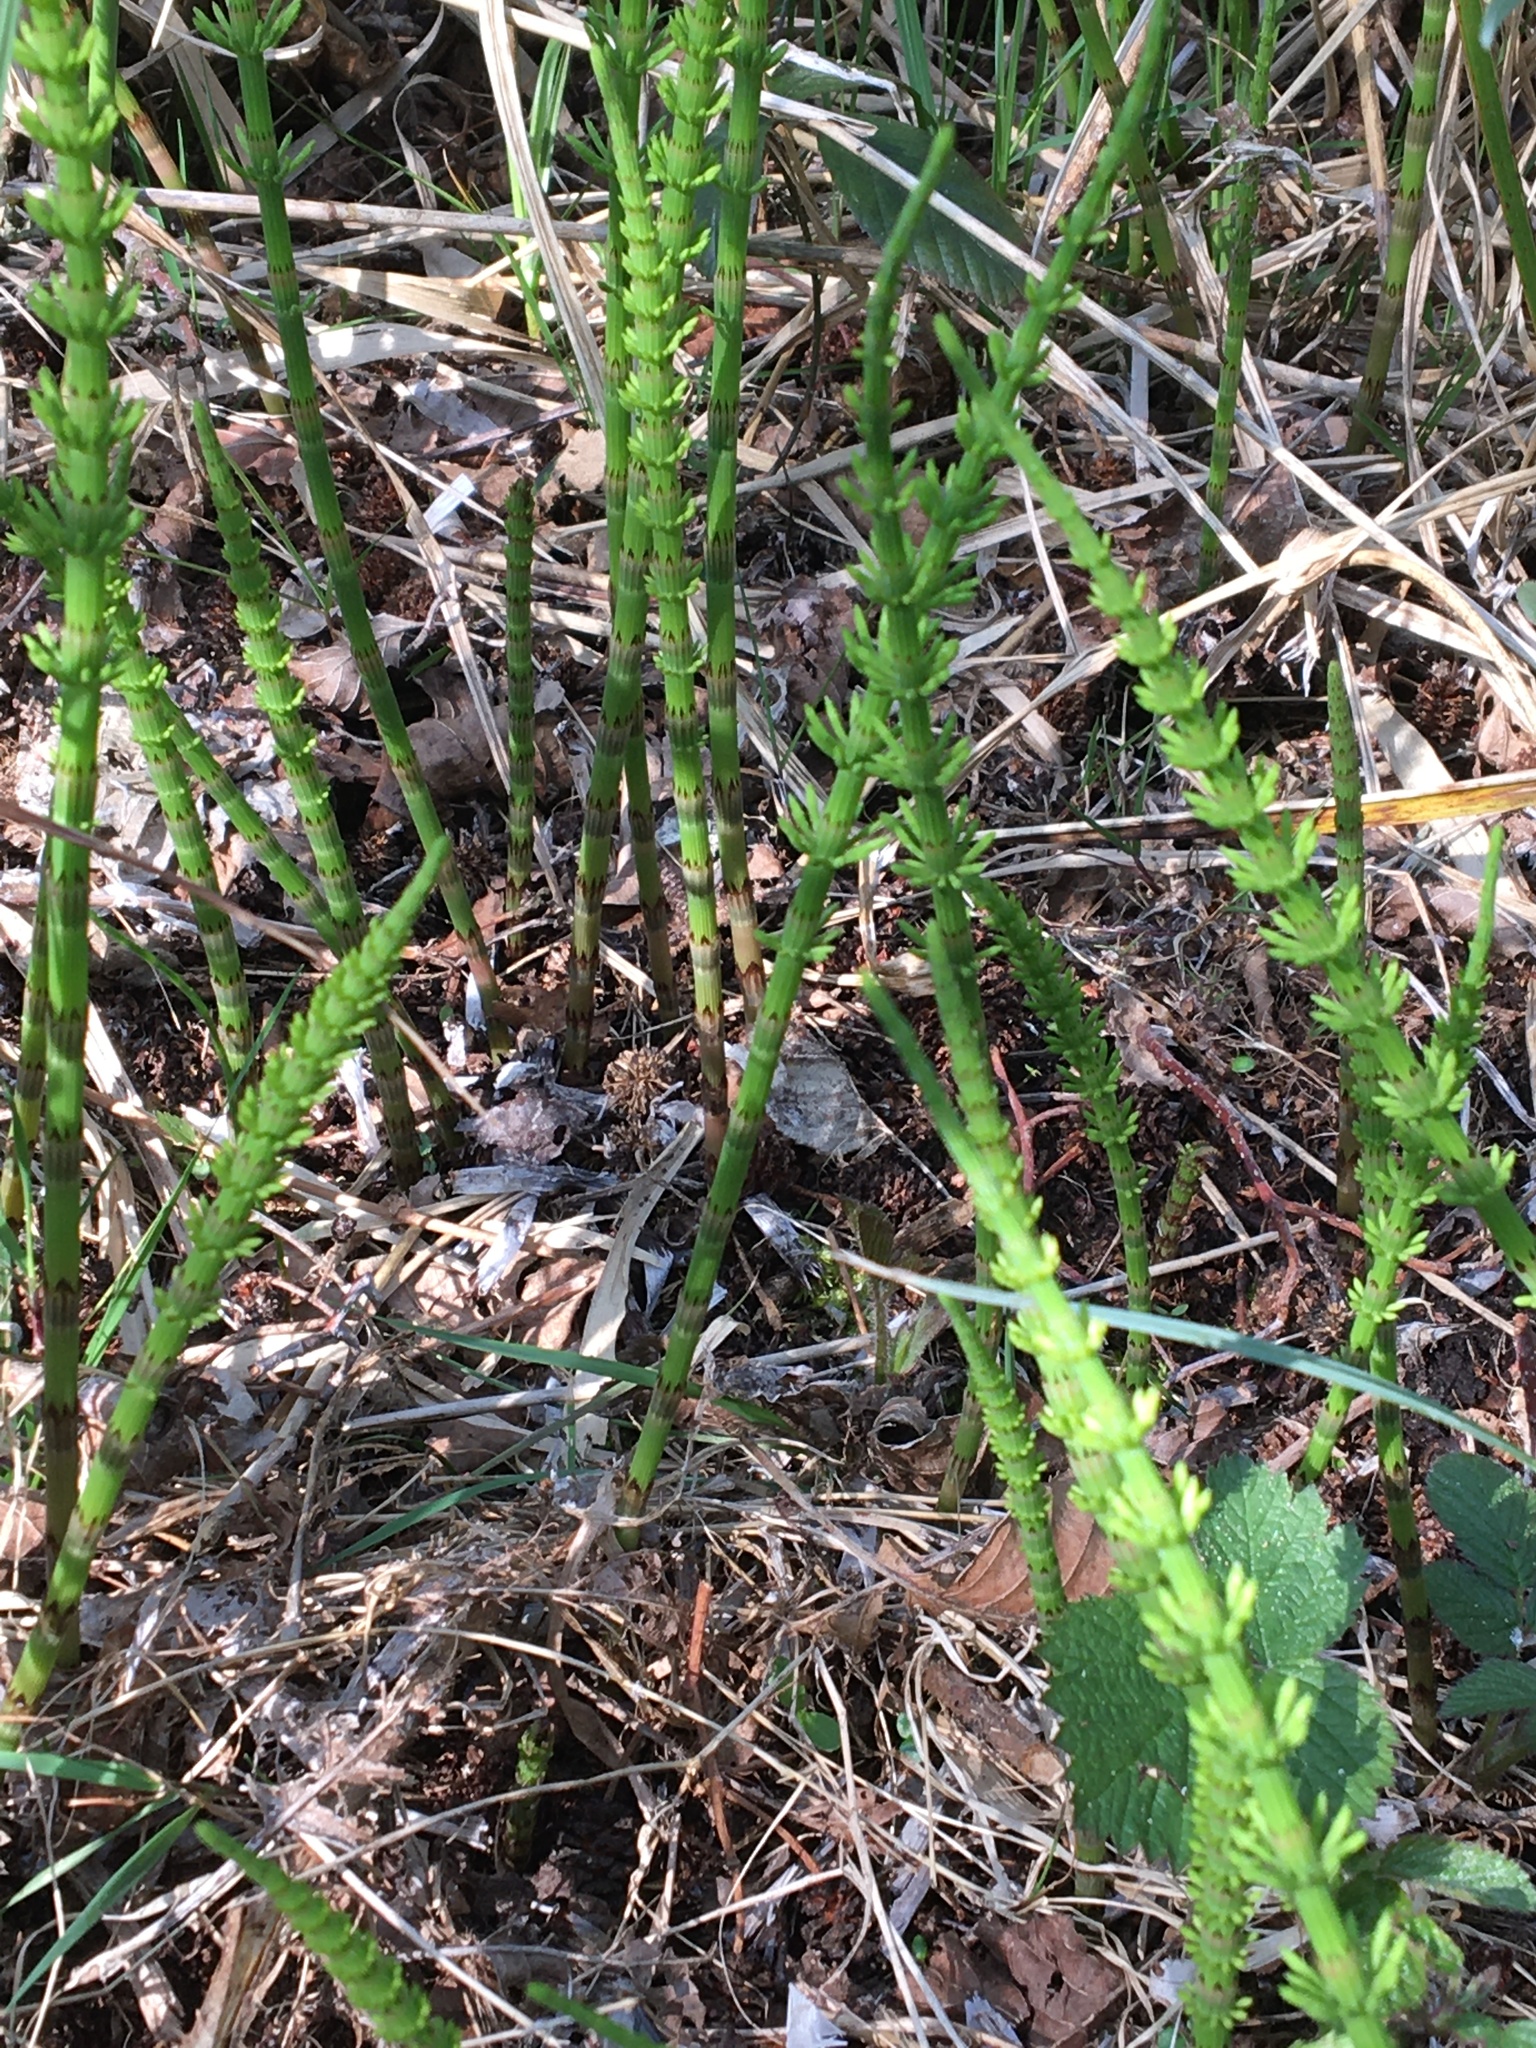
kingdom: Plantae
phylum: Tracheophyta
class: Polypodiopsida
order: Equisetales
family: Equisetaceae
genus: Equisetum
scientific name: Equisetum arvense
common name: Field horsetail
